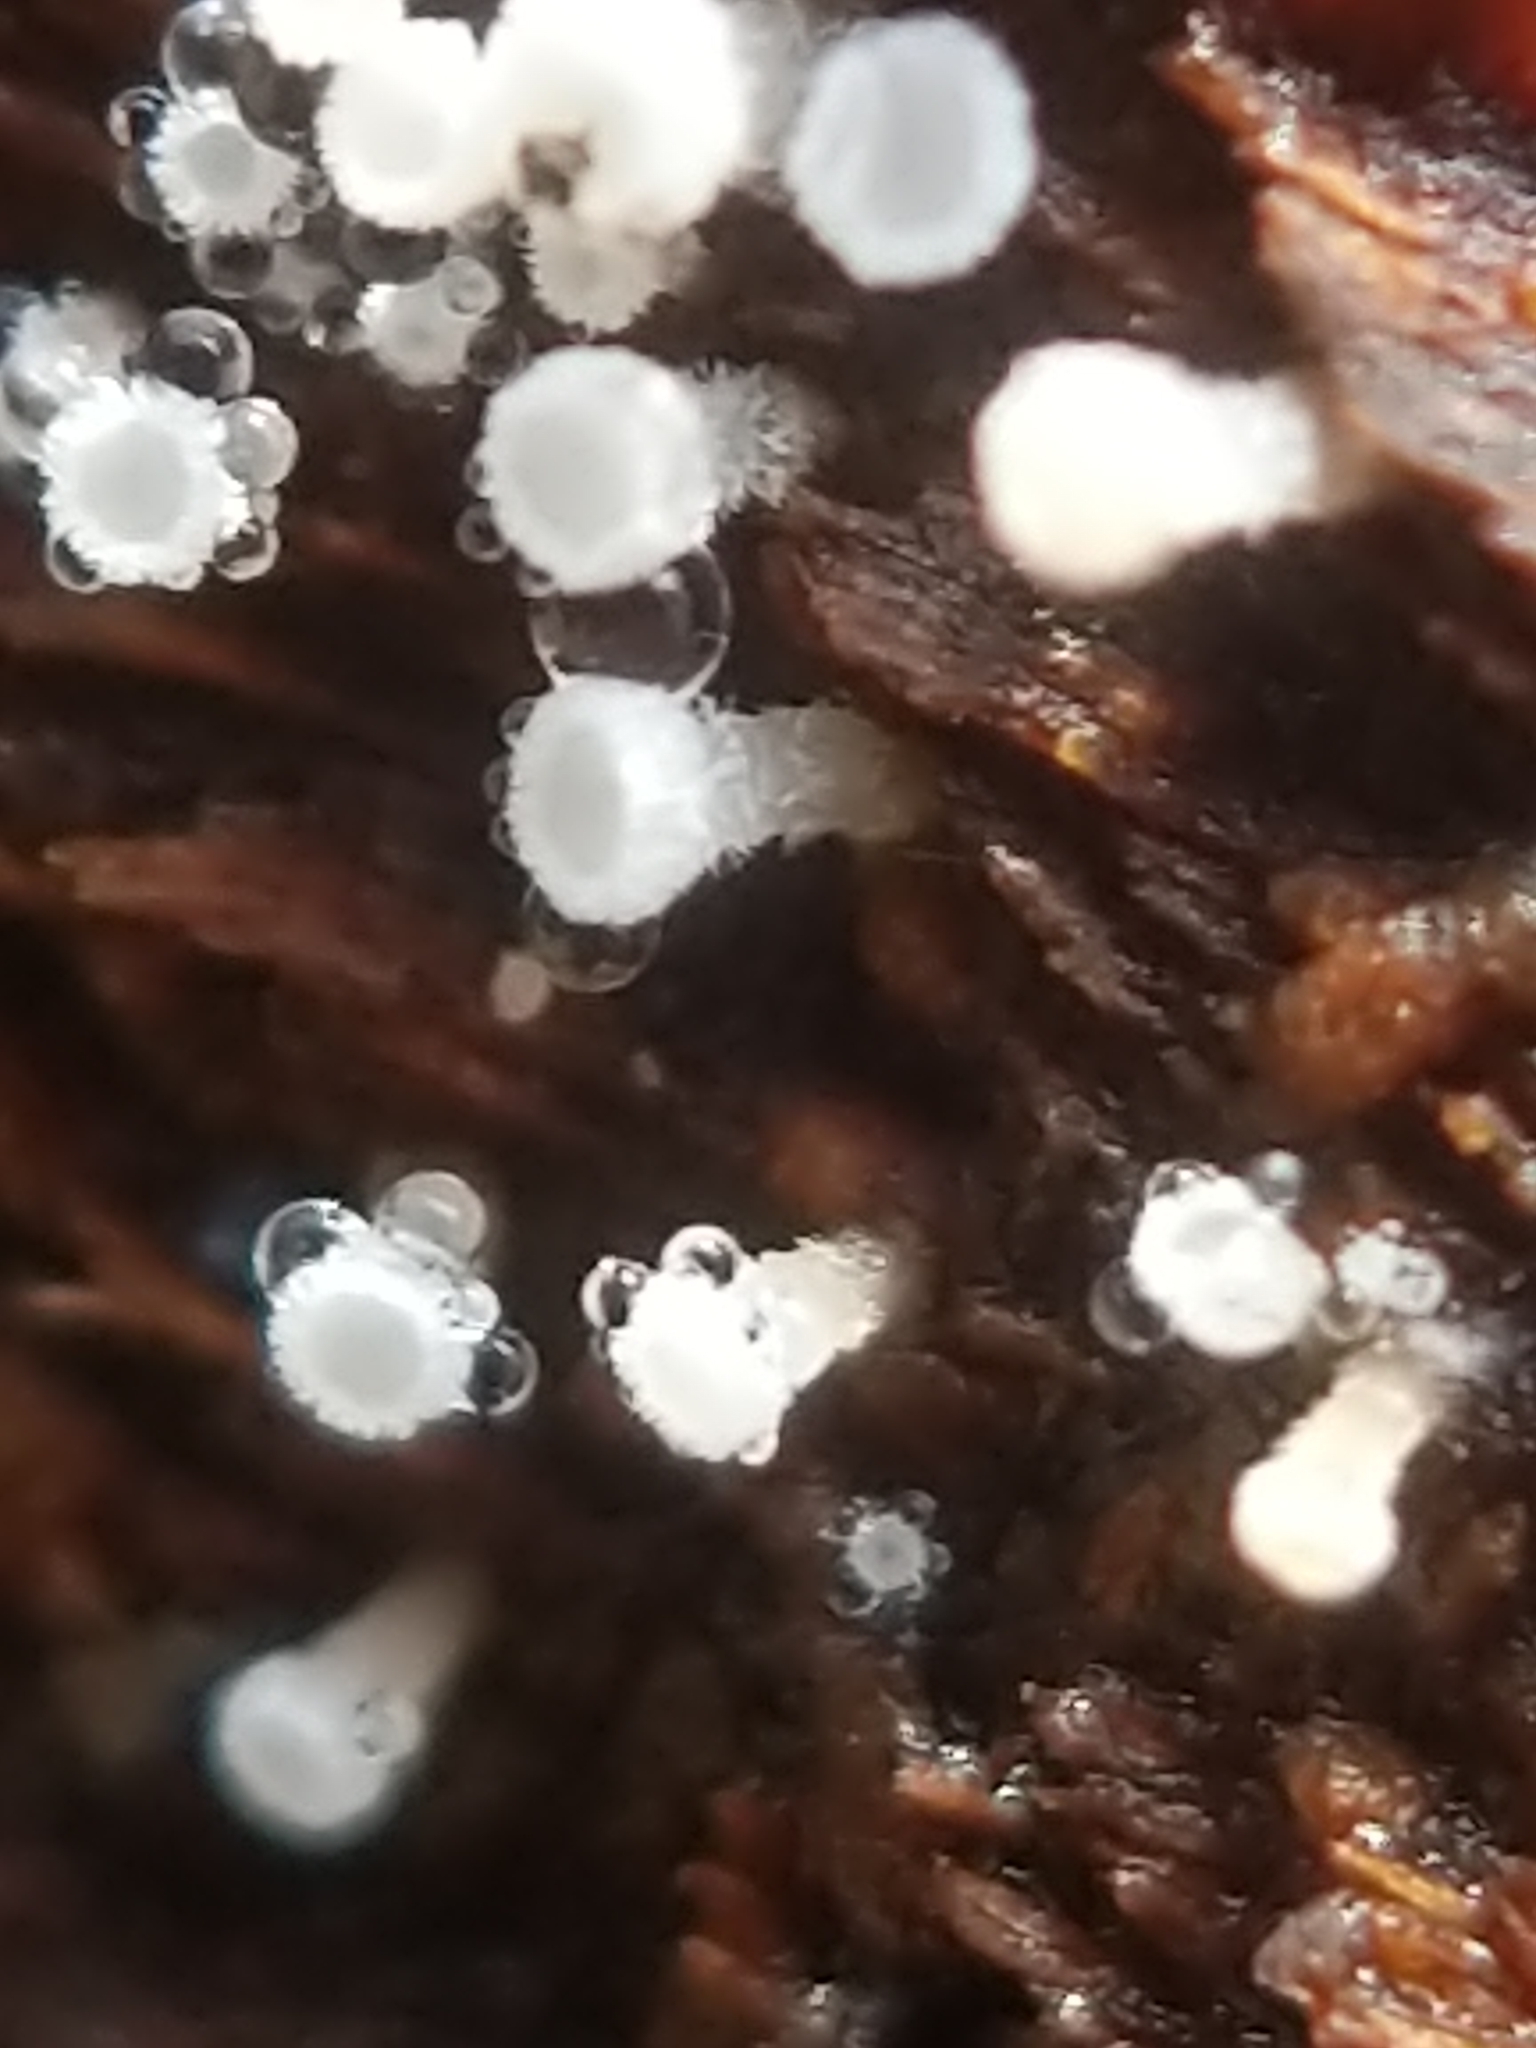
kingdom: Fungi
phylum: Ascomycota
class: Leotiomycetes
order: Helotiales
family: Lachnaceae
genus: Lachnum
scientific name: Lachnum virgineum
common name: Snowy disco
